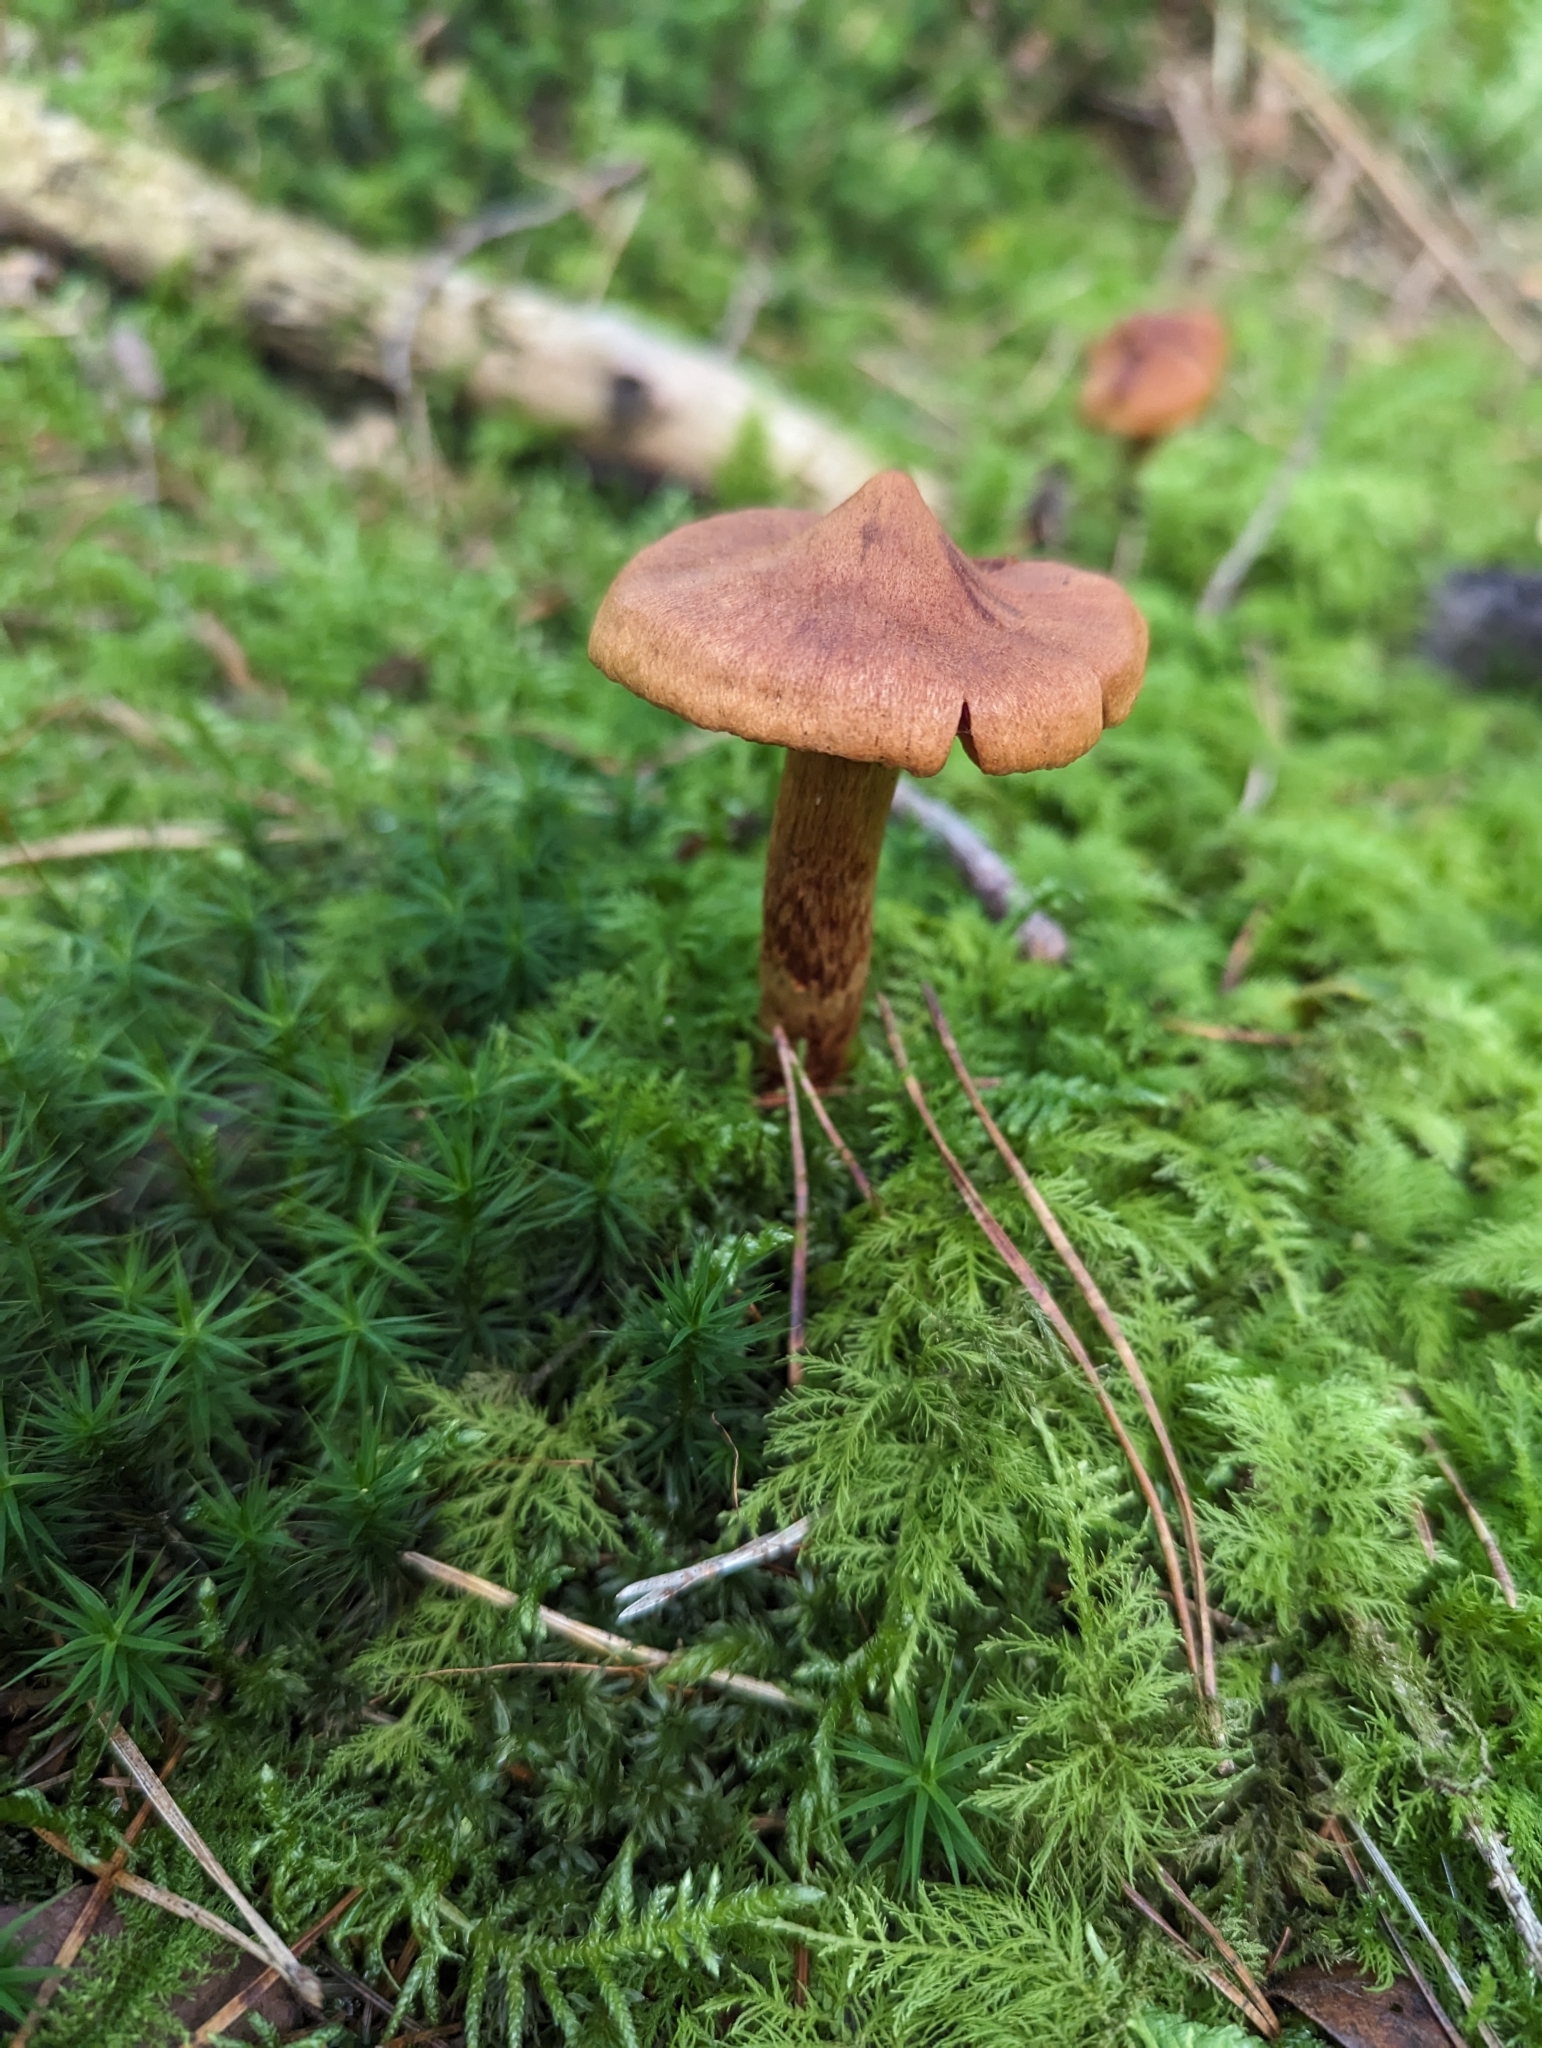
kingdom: Fungi
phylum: Basidiomycota
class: Agaricomycetes
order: Agaricales
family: Cortinariaceae
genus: Cortinarius
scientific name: Cortinarius rubellus
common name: Deadly webcap
